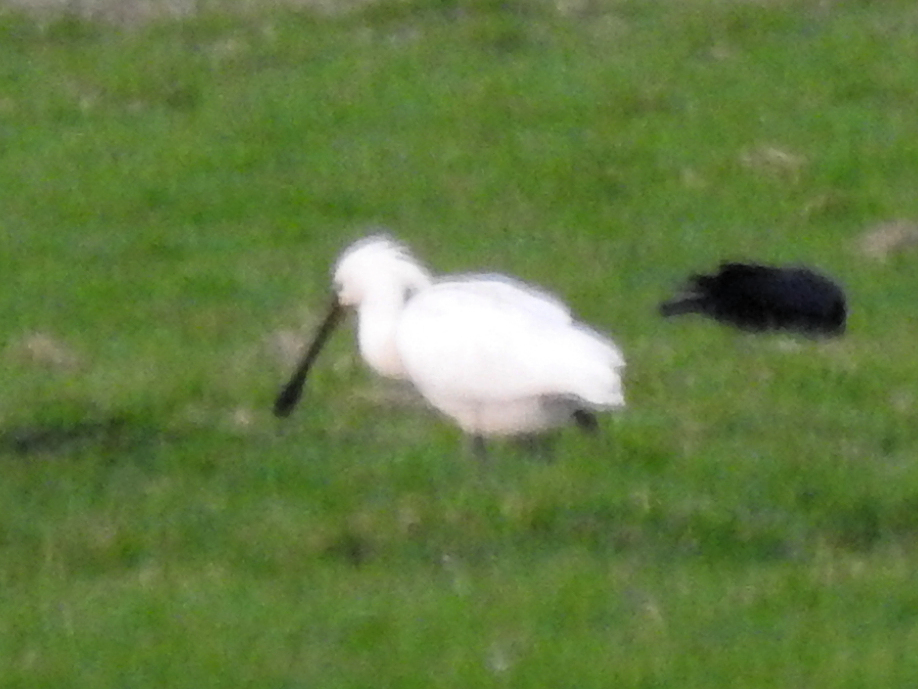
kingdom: Animalia
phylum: Chordata
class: Aves
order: Pelecaniformes
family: Threskiornithidae
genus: Platalea
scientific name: Platalea leucorodia
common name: Eurasian spoonbill
